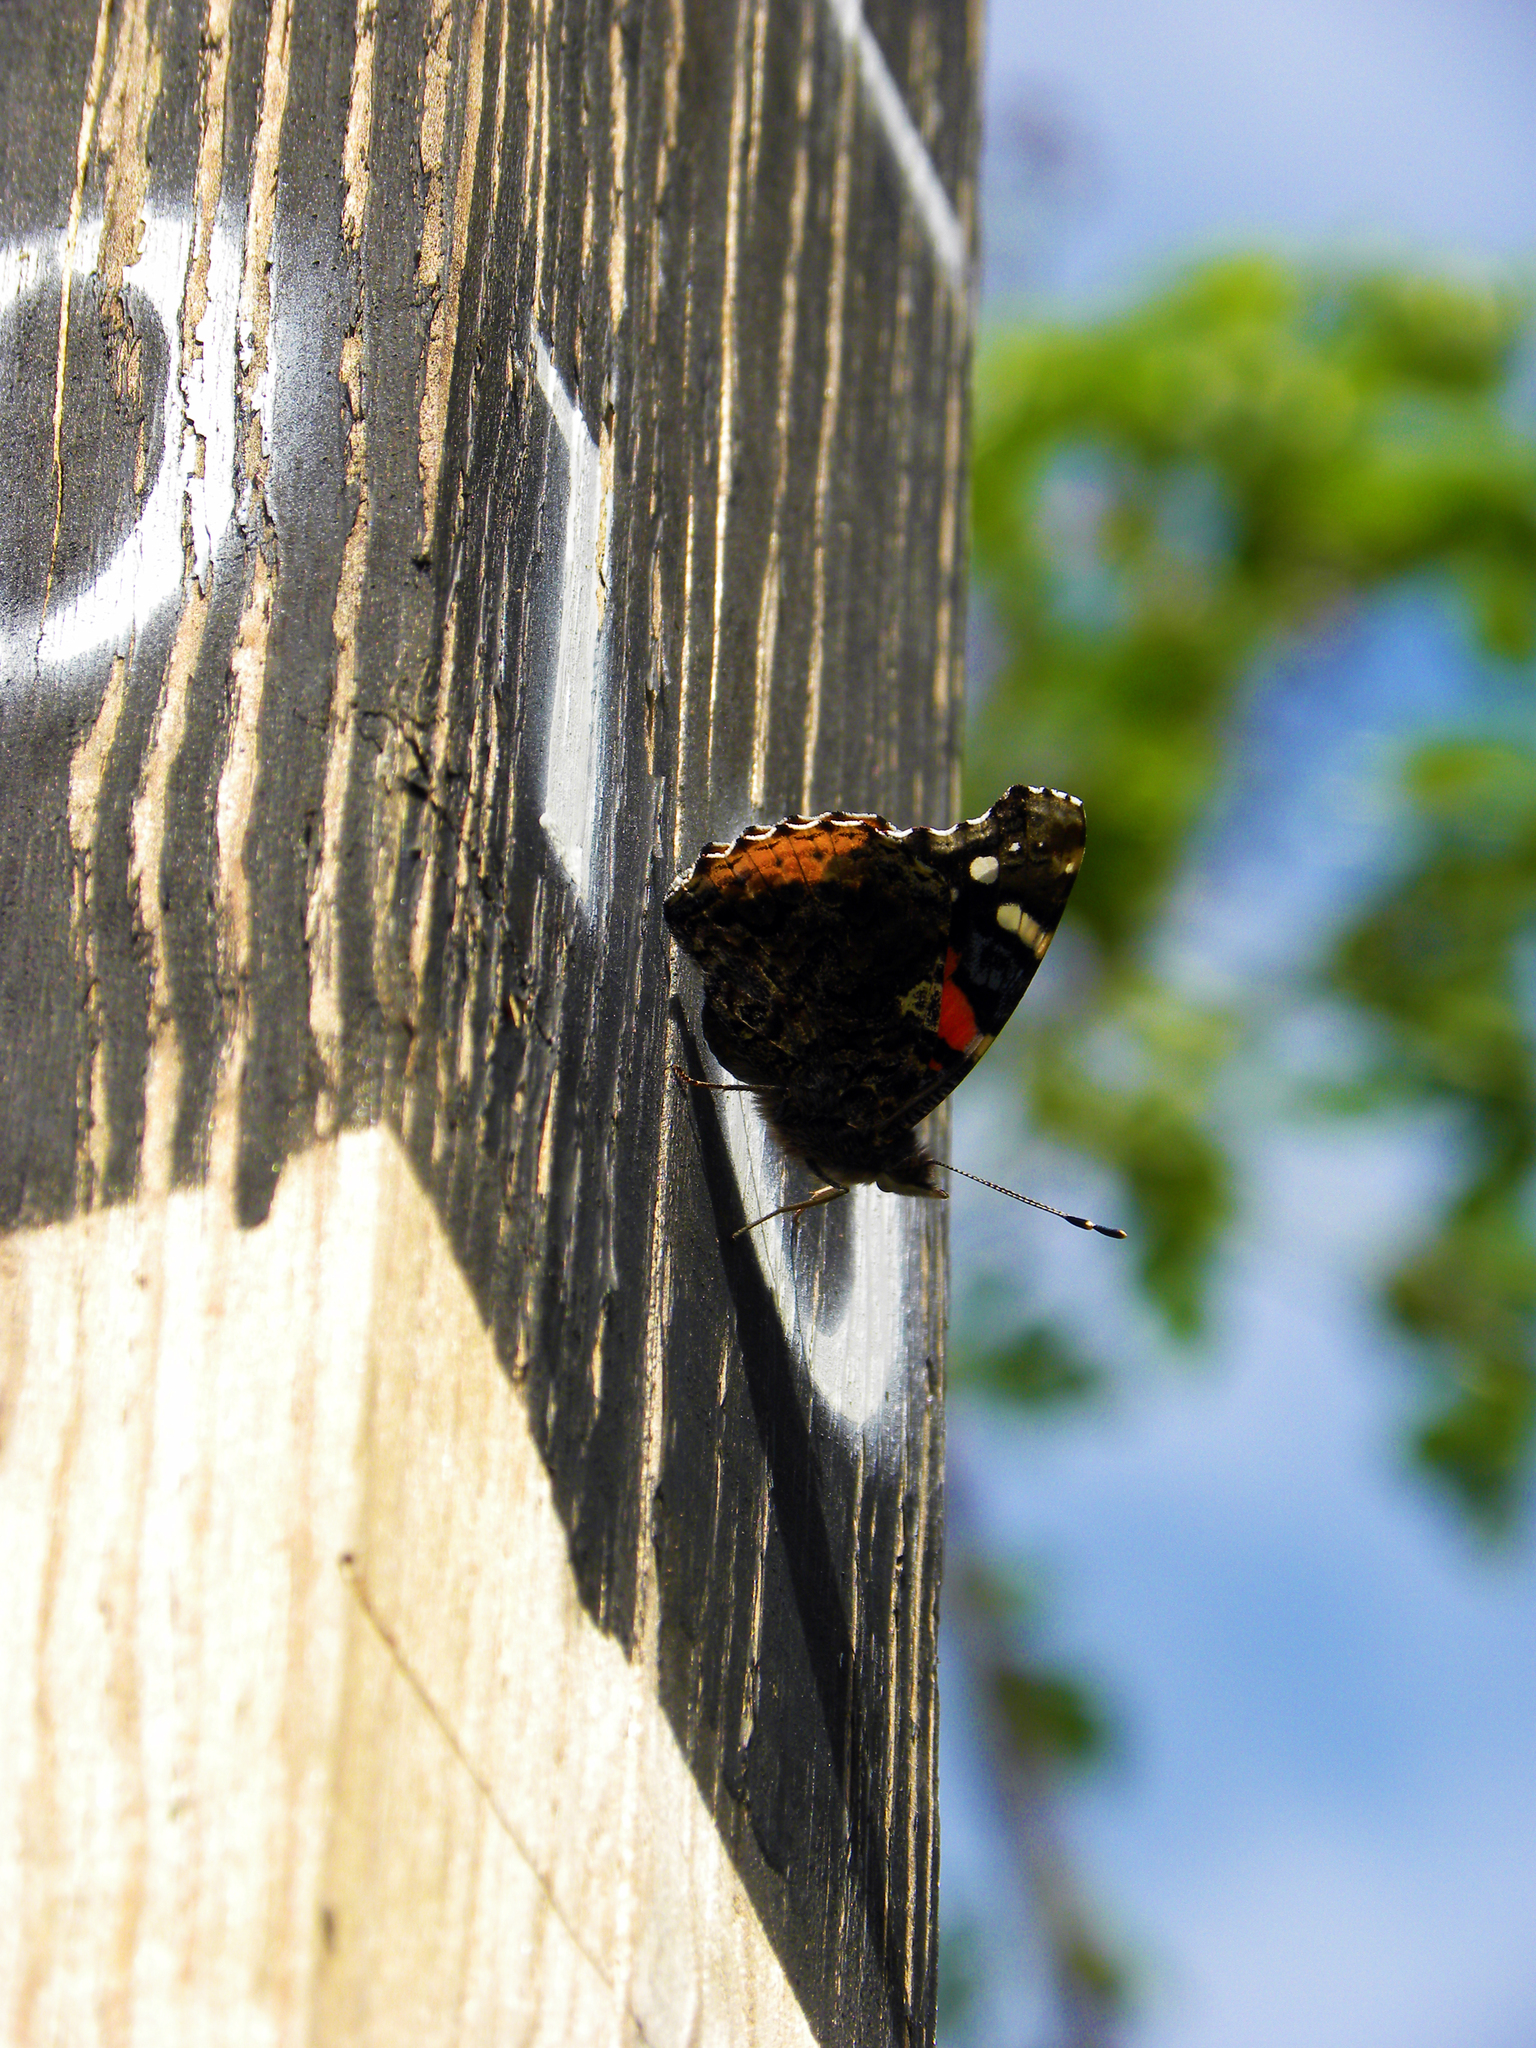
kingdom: Animalia
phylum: Arthropoda
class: Insecta
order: Lepidoptera
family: Nymphalidae
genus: Vanessa
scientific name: Vanessa atalanta
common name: Red admiral
